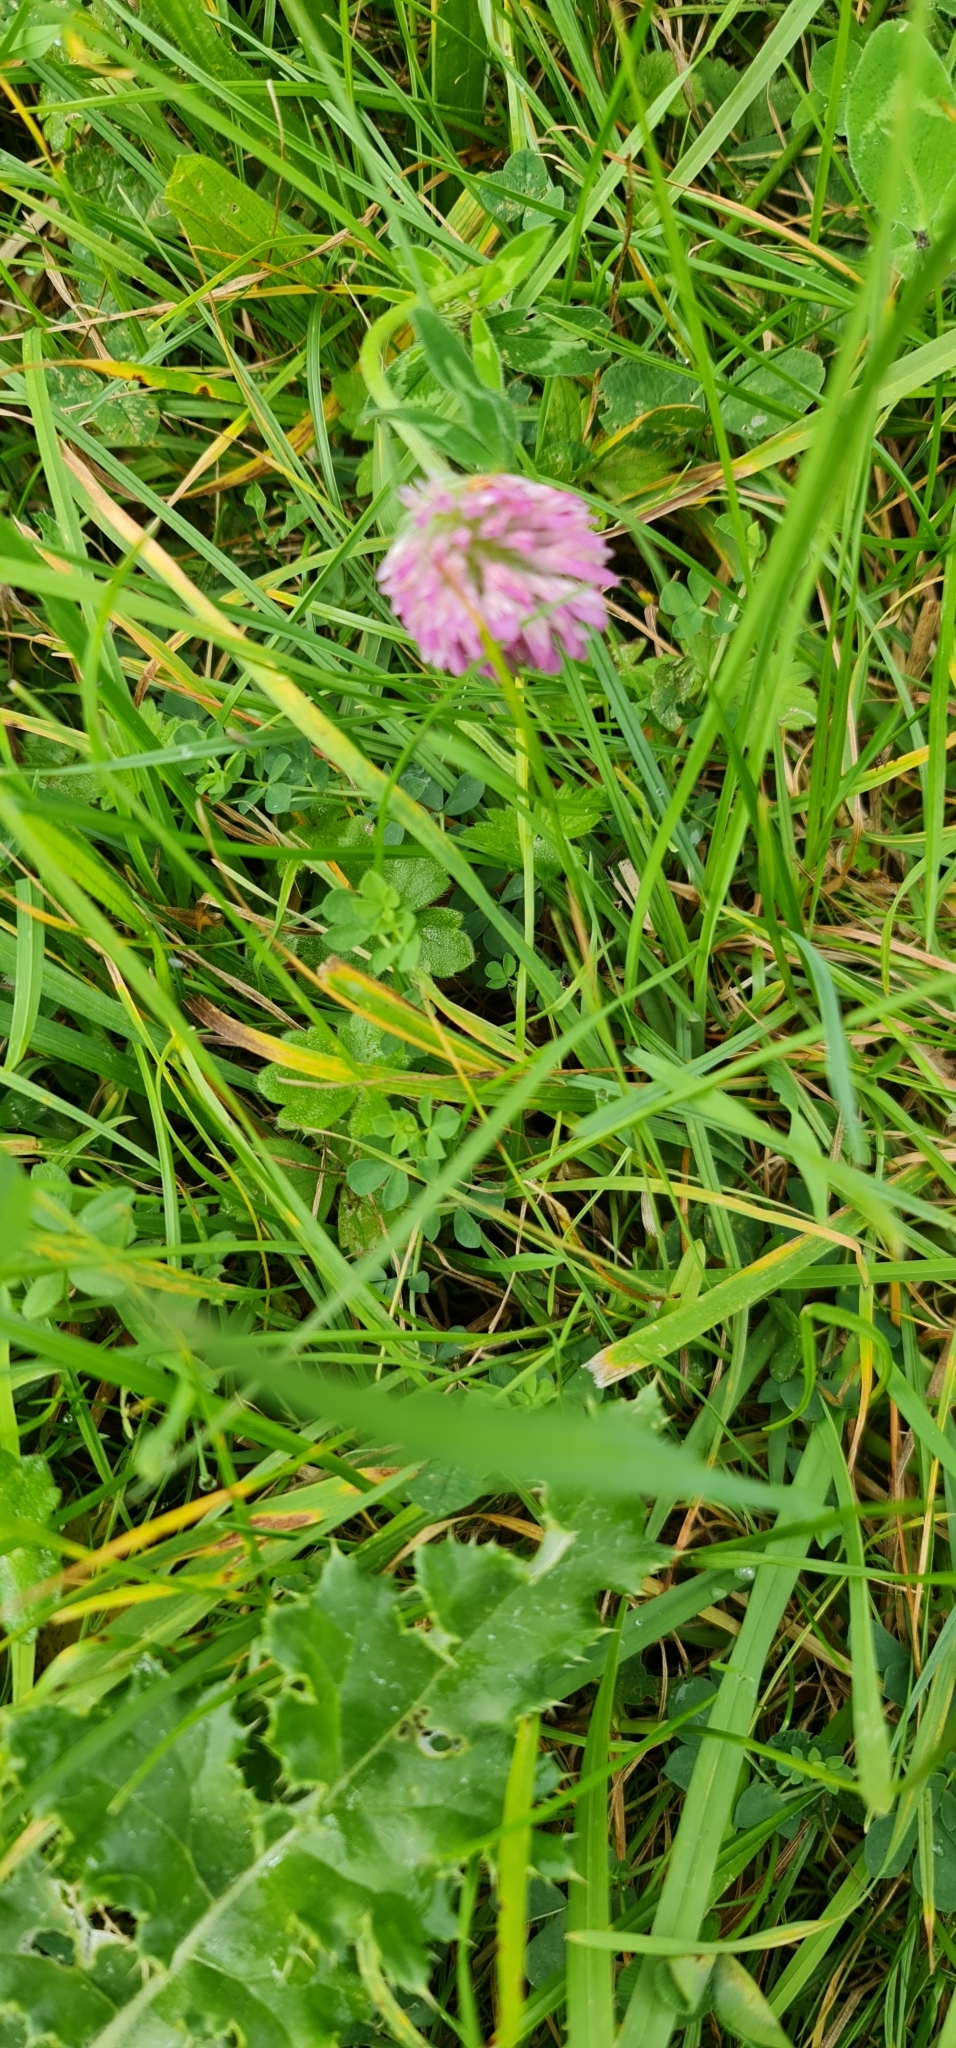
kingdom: Plantae
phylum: Tracheophyta
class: Magnoliopsida
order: Fabales
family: Fabaceae
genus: Trifolium
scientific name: Trifolium pratense
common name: Red clover
